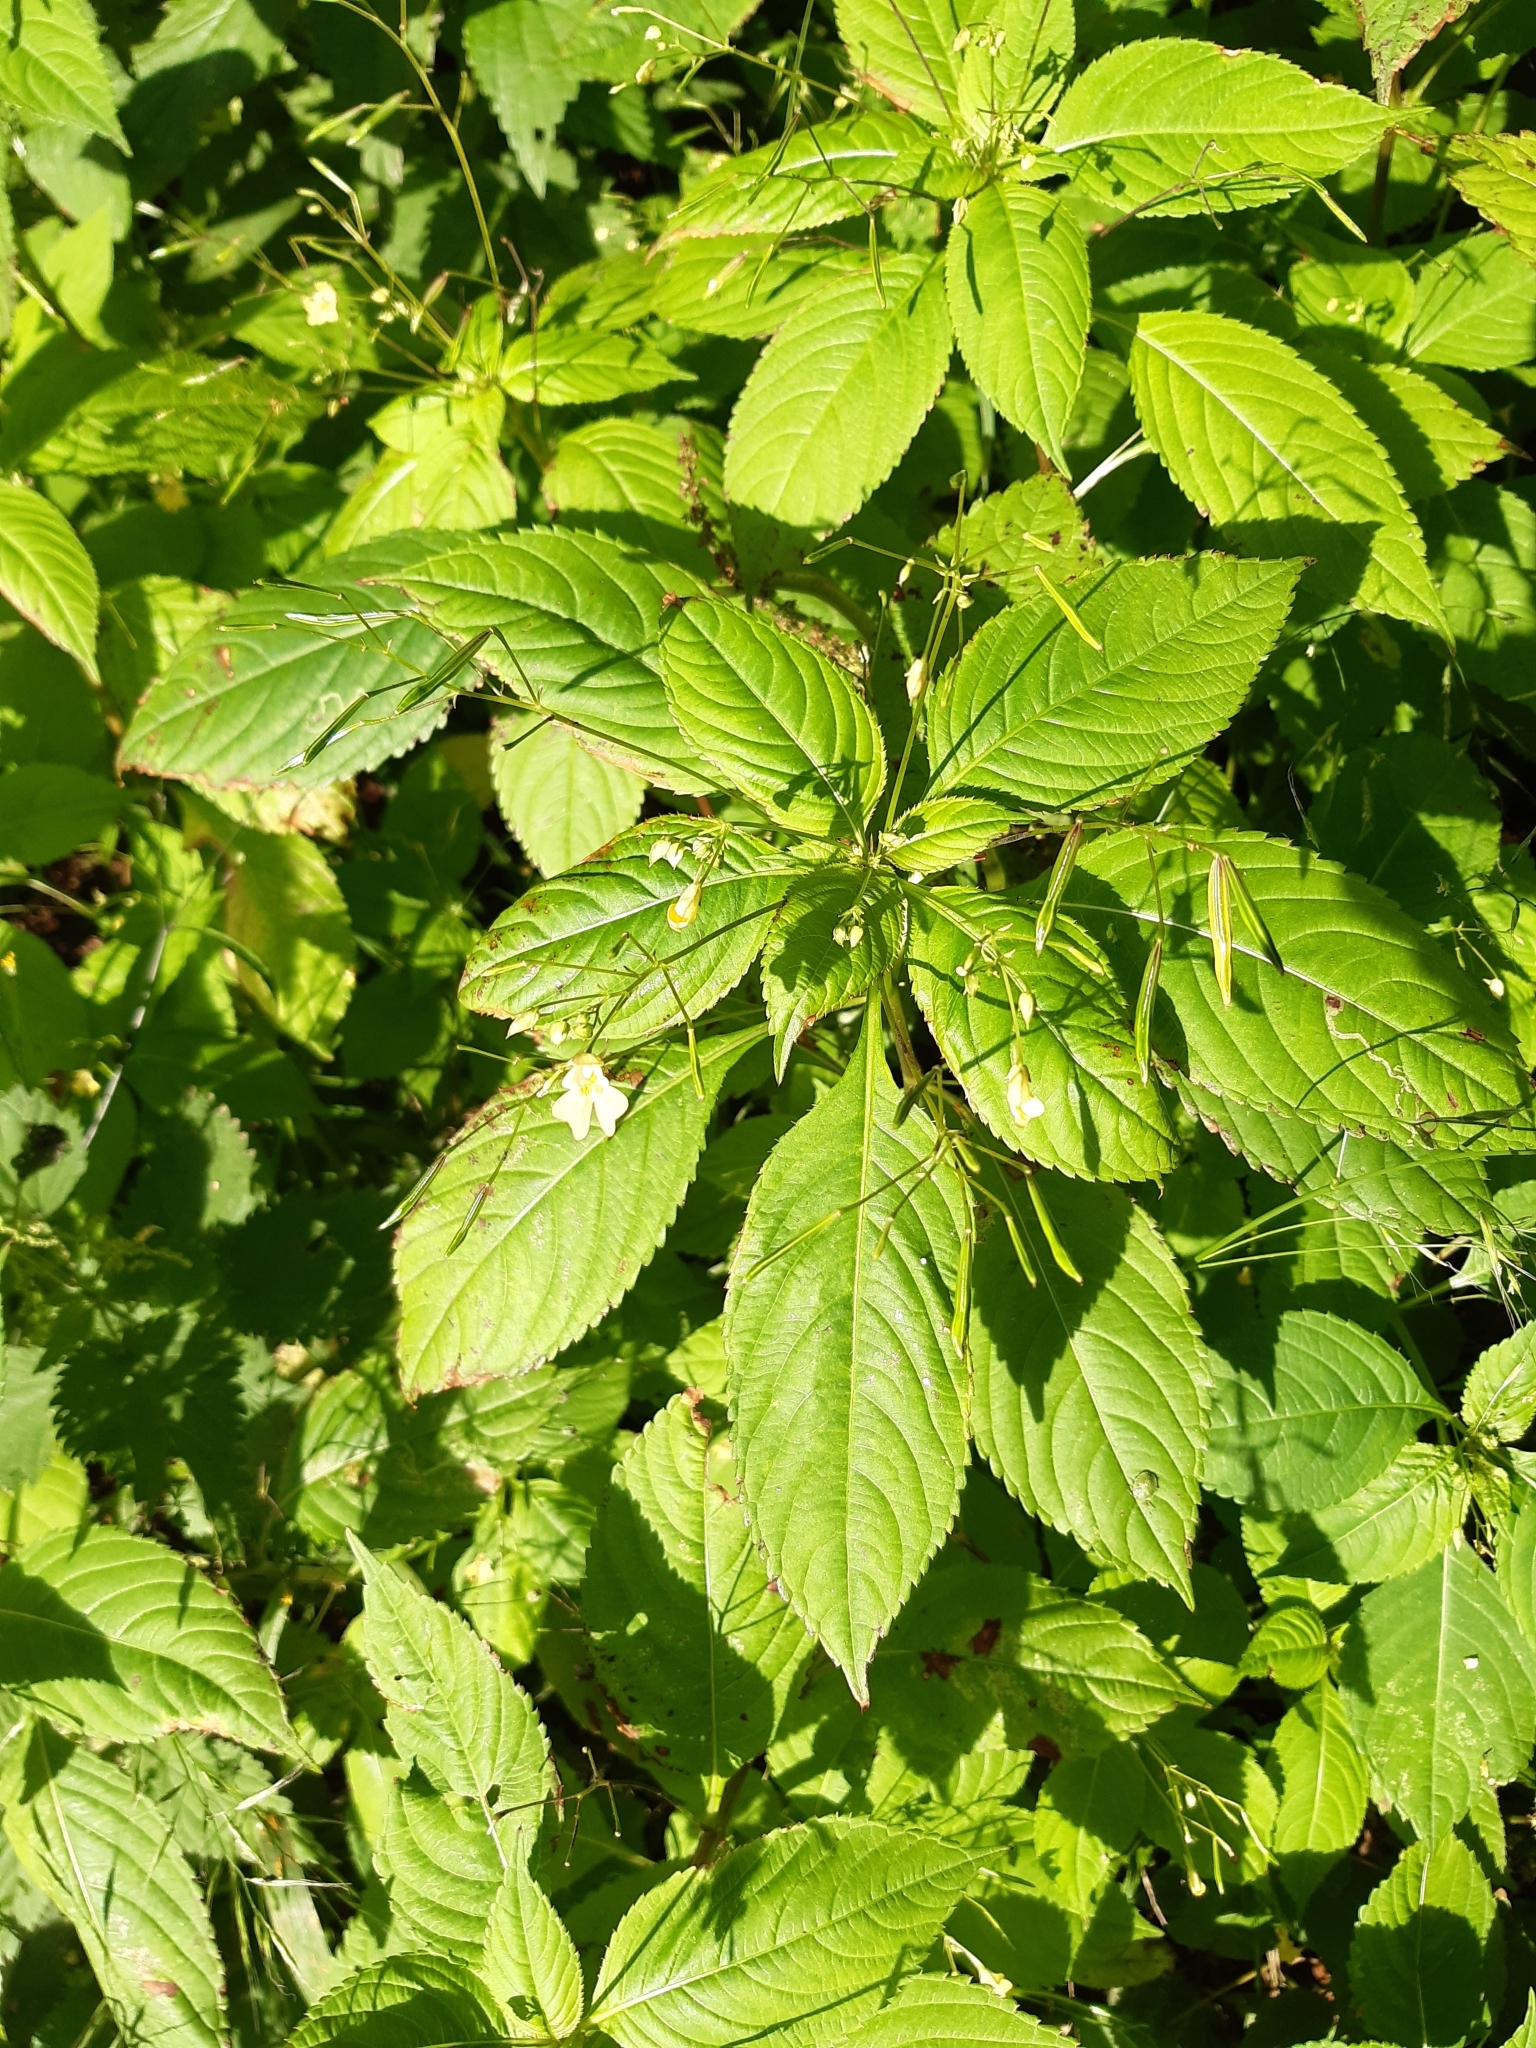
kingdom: Plantae
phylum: Tracheophyta
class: Magnoliopsida
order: Ericales
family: Balsaminaceae
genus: Impatiens
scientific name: Impatiens parviflora
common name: Small balsam
